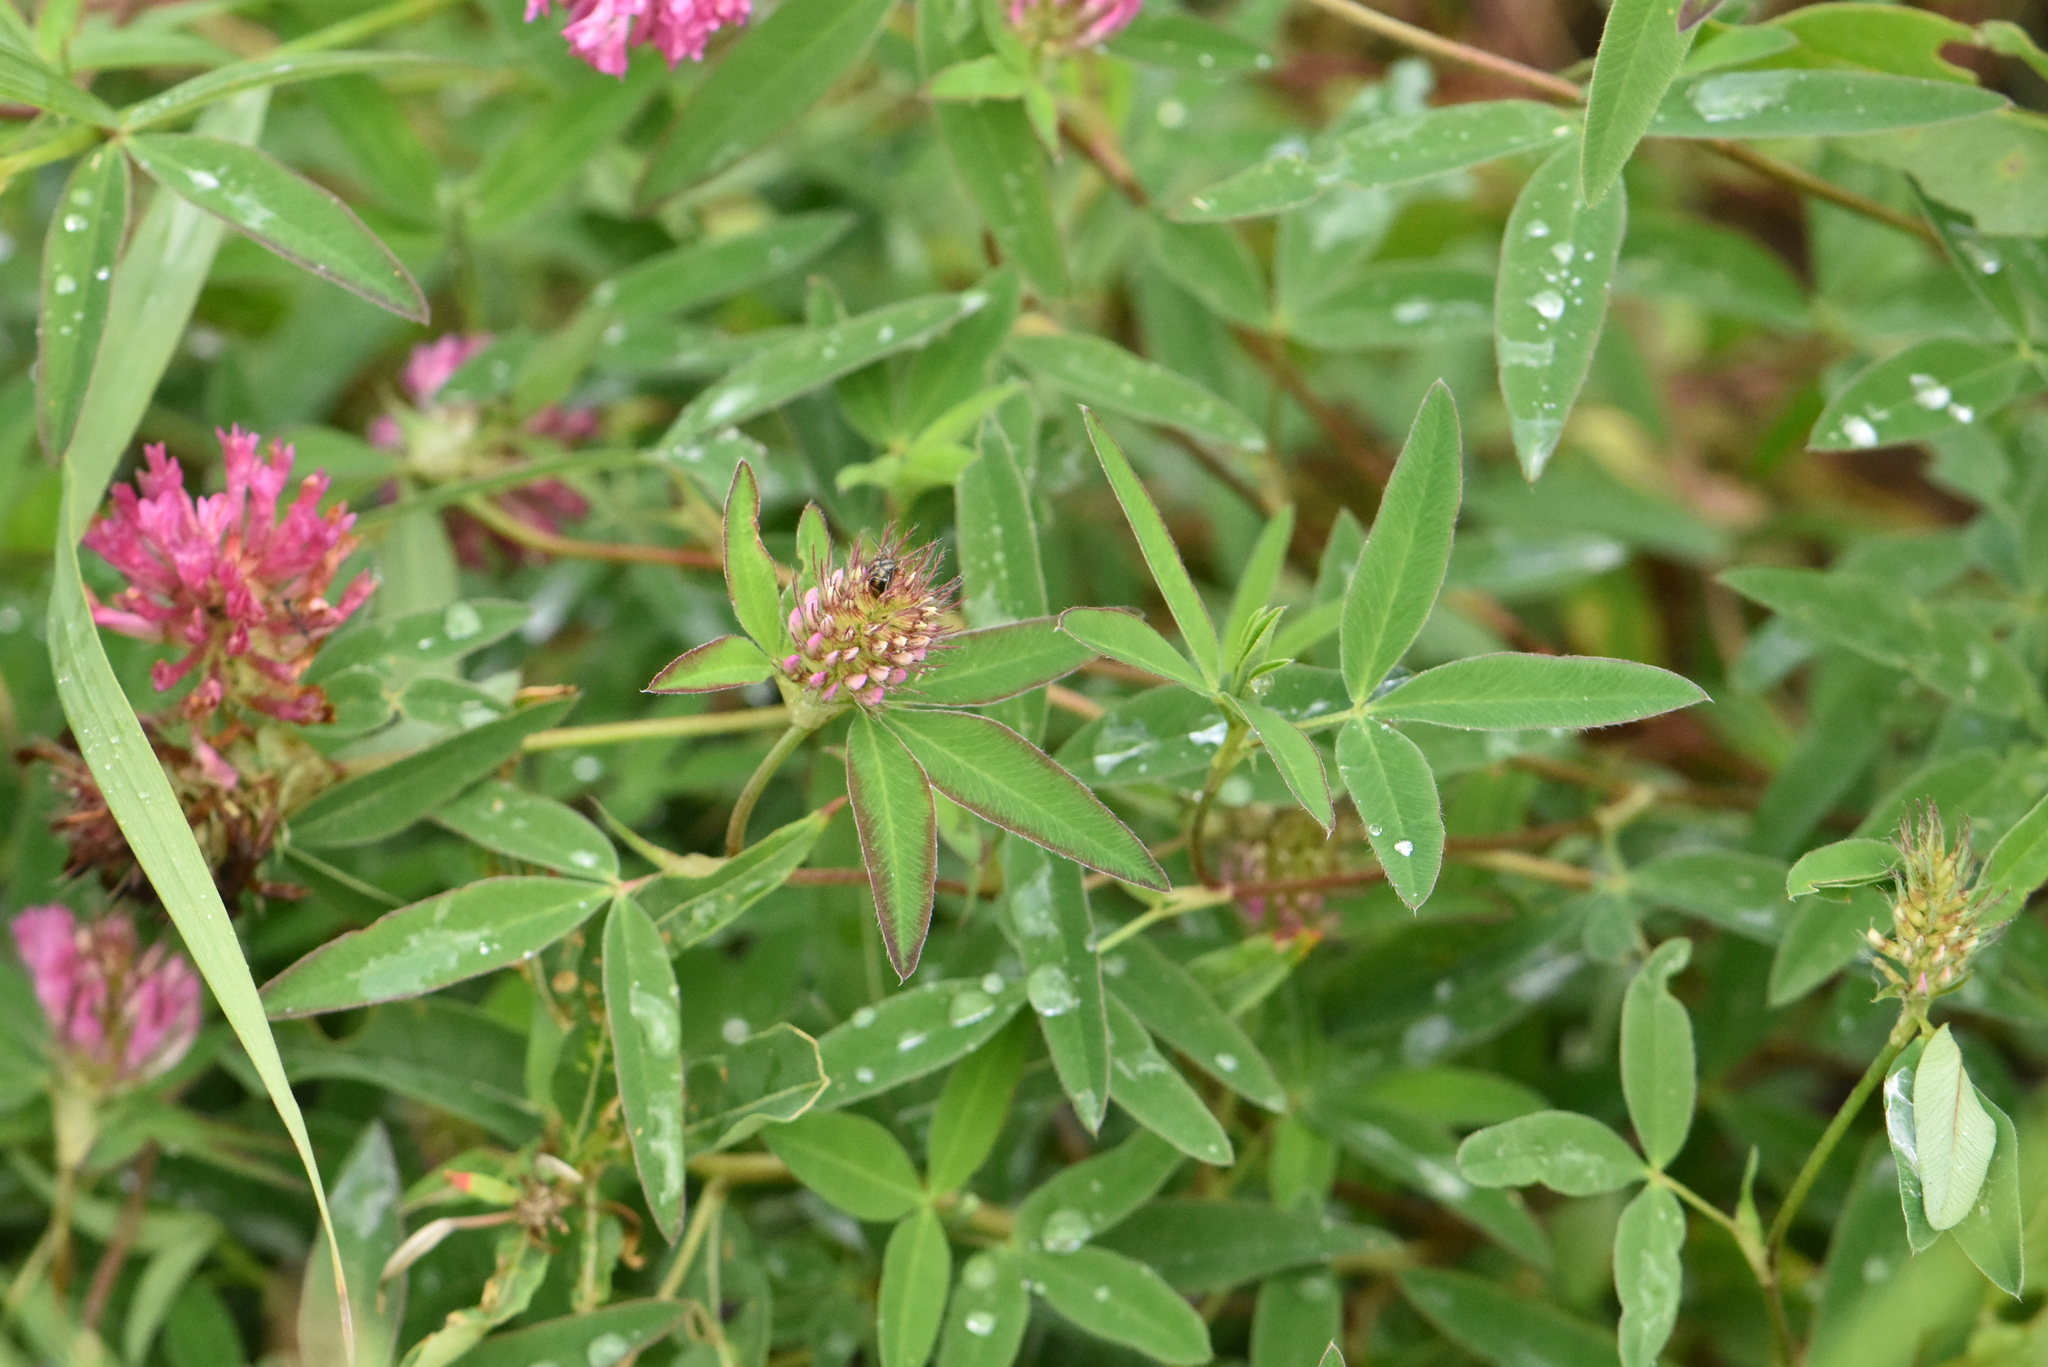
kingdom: Plantae
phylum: Tracheophyta
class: Magnoliopsida
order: Fabales
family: Fabaceae
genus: Trifolium
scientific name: Trifolium medium
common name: Zigzag clover
